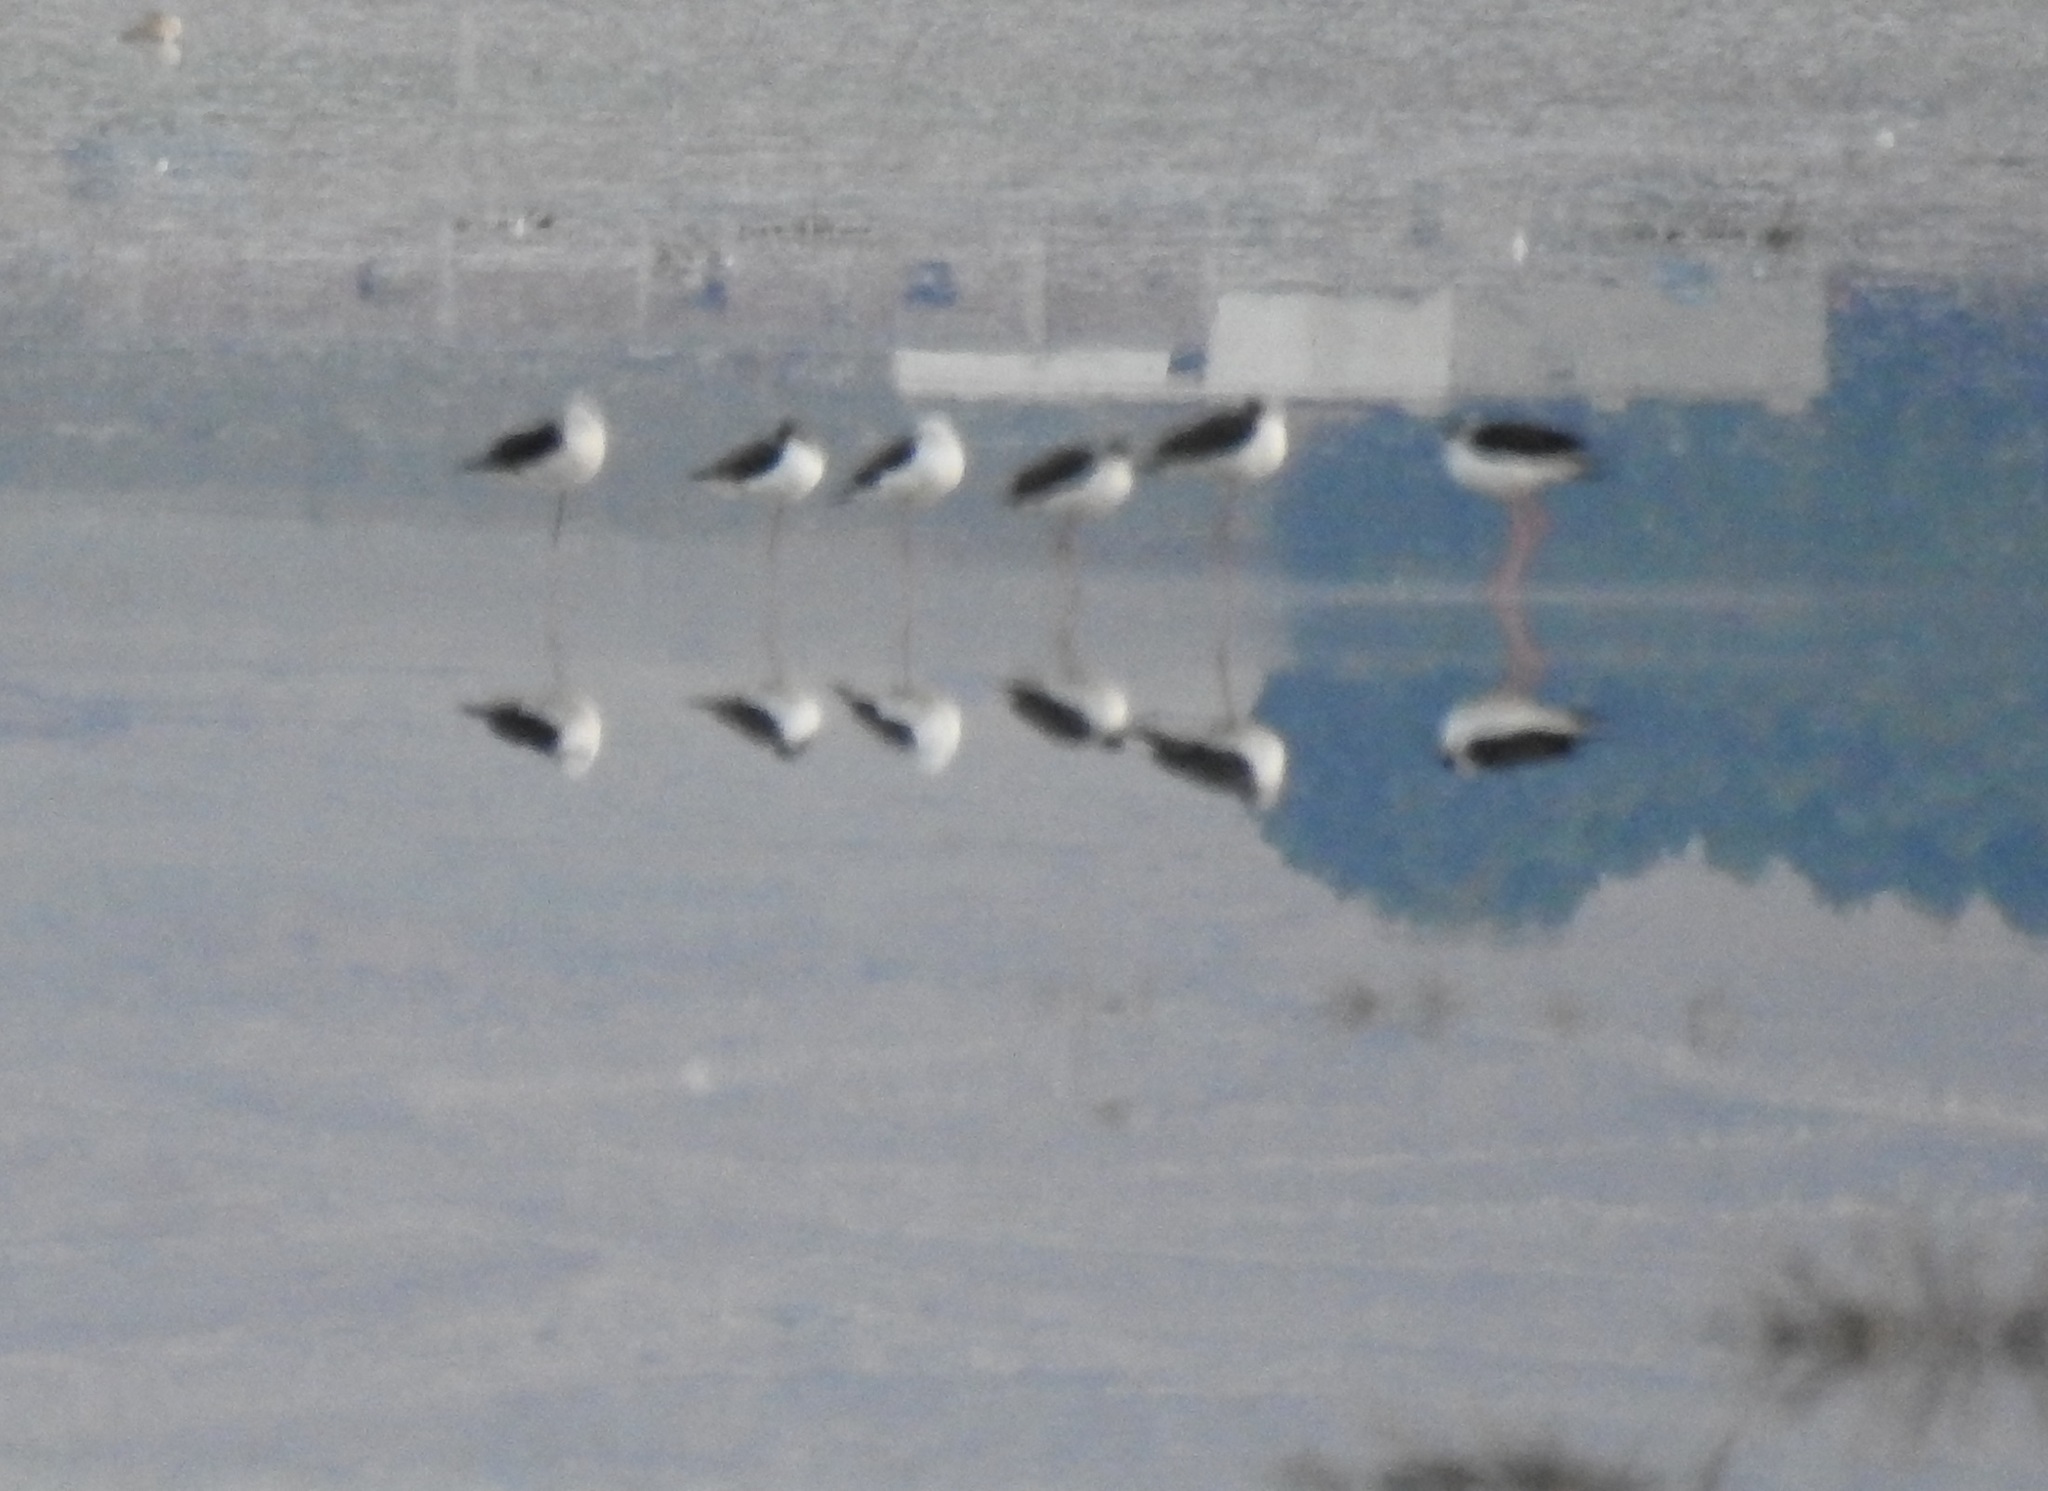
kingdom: Animalia
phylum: Chordata
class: Aves
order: Charadriiformes
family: Recurvirostridae
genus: Himantopus
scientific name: Himantopus himantopus
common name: Black-winged stilt
